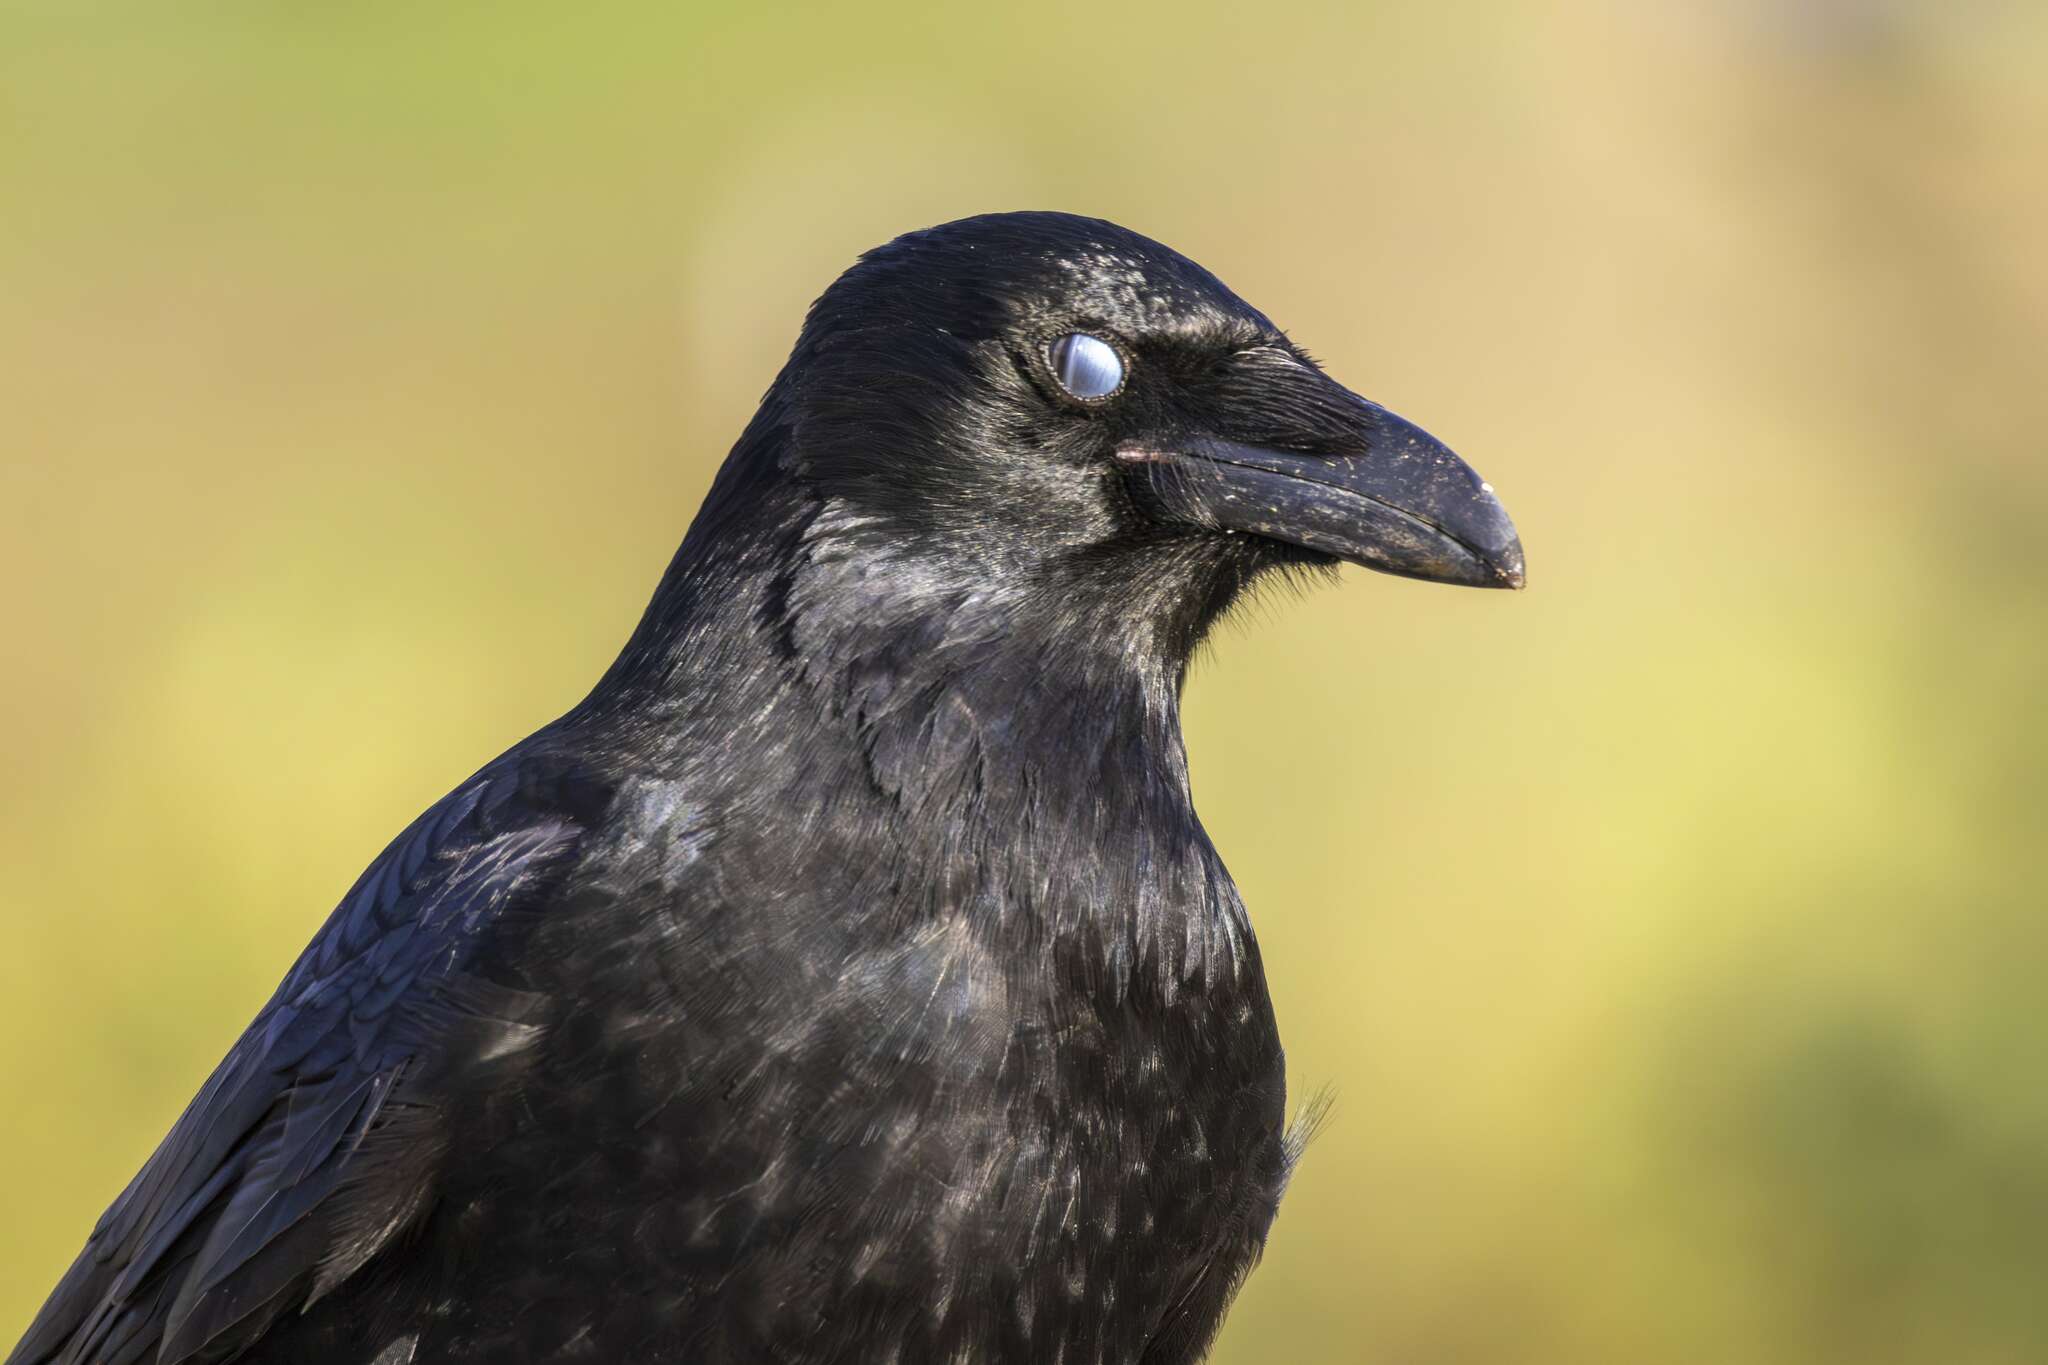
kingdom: Animalia
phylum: Chordata
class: Aves
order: Passeriformes
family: Corvidae
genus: Corvus
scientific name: Corvus corone
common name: Carrion crow
